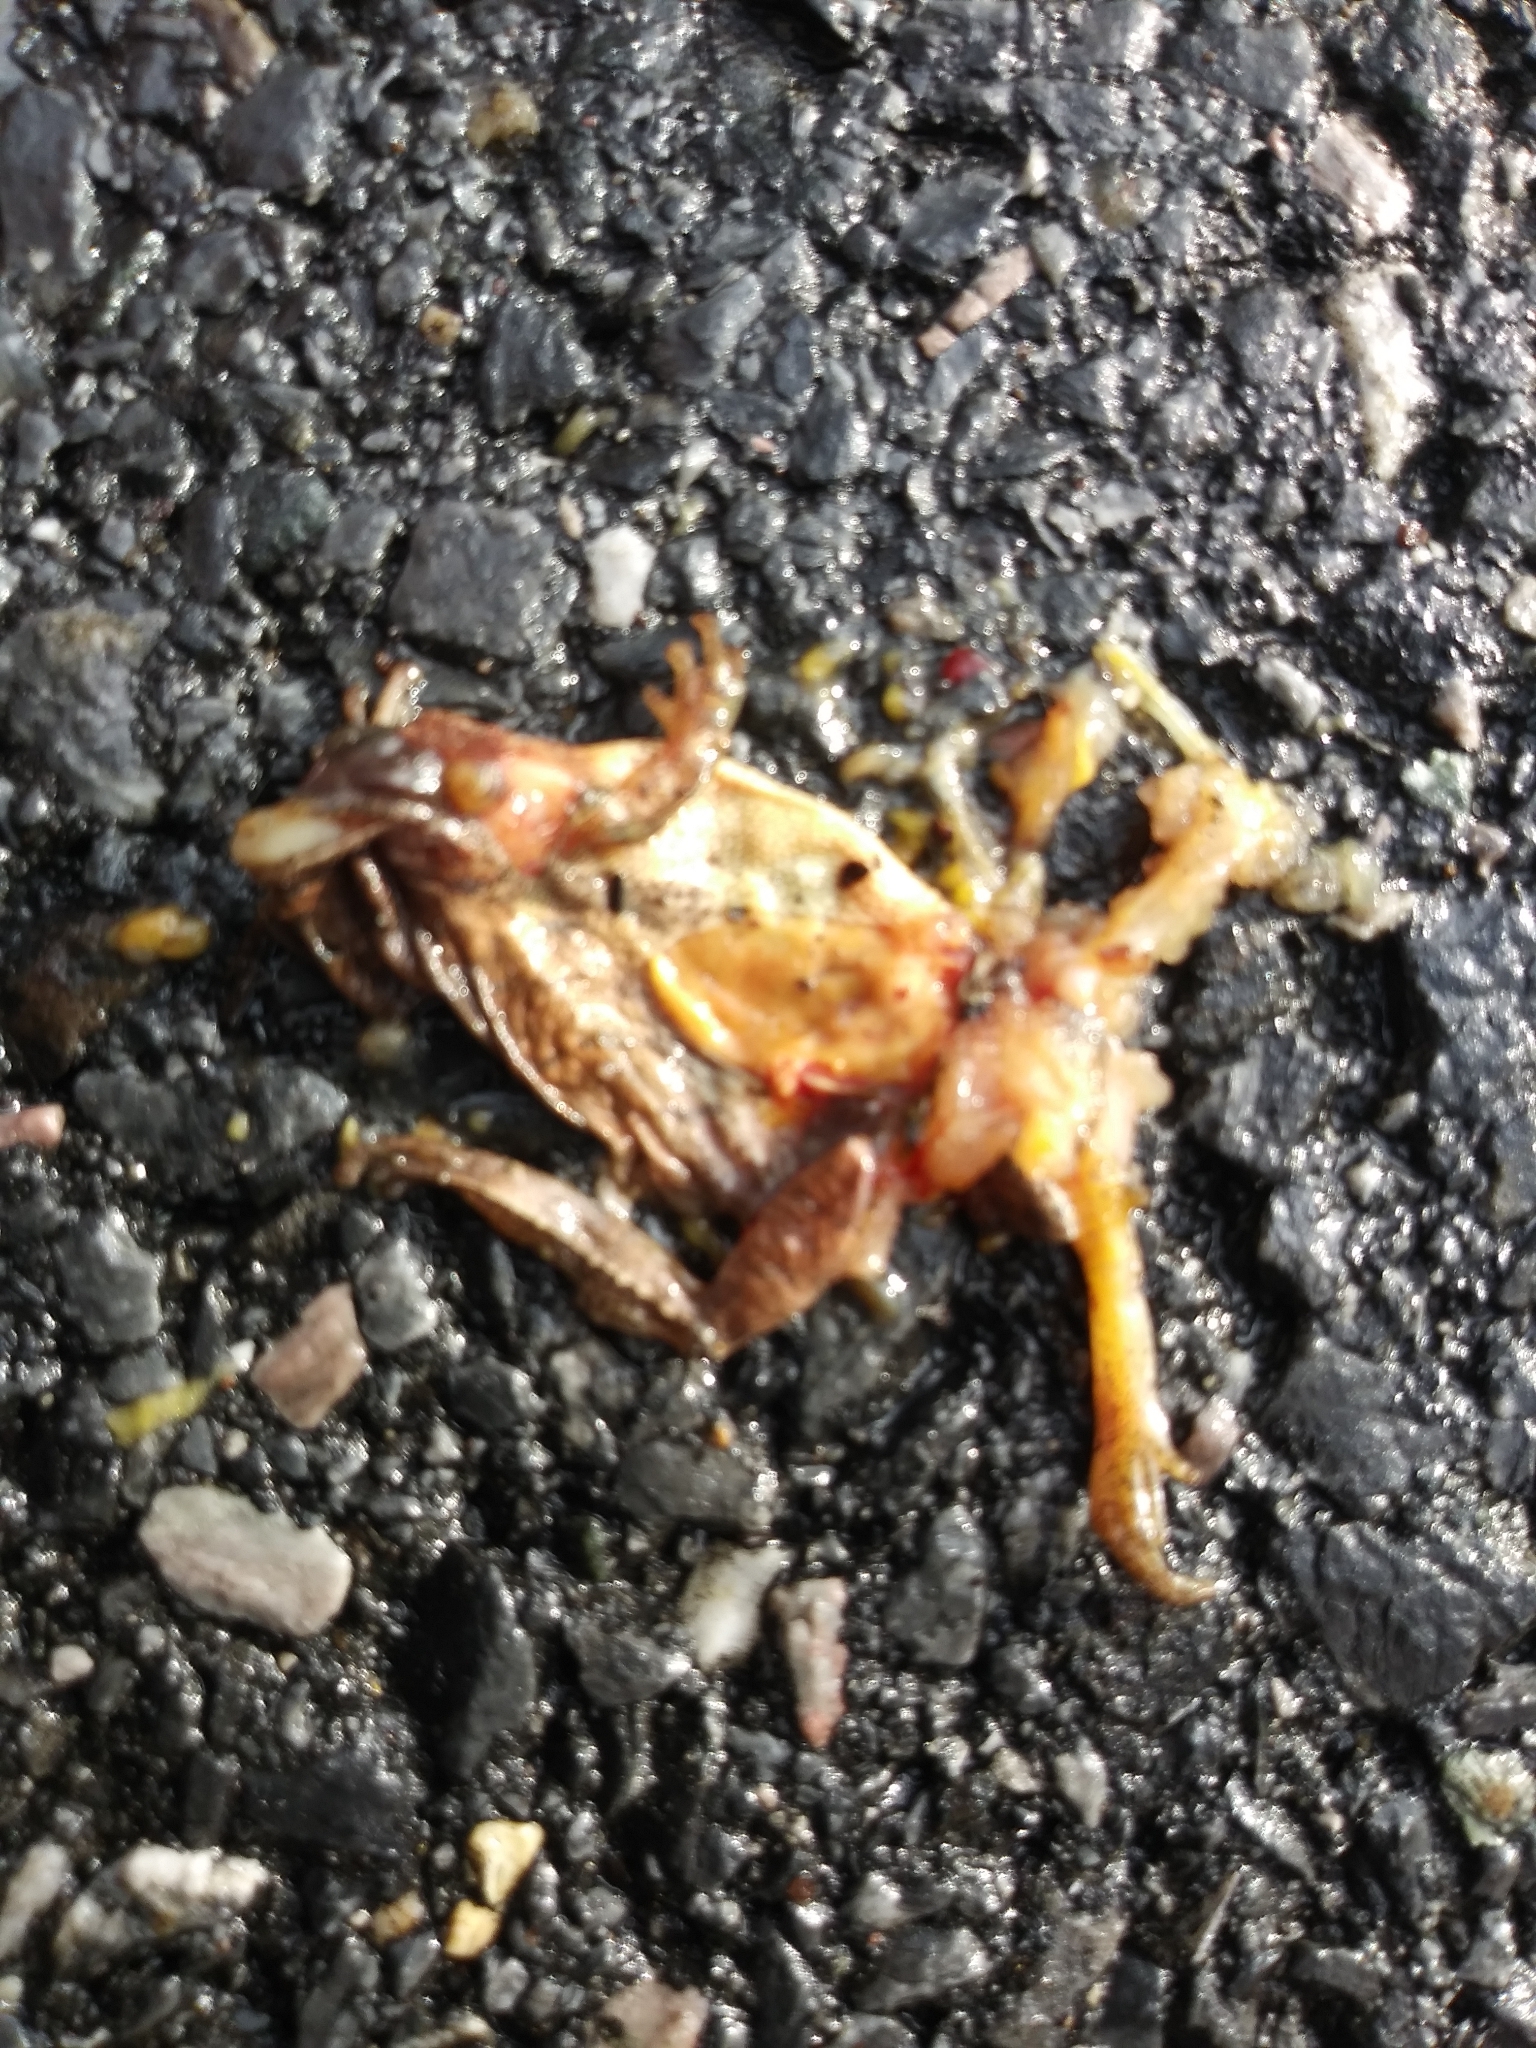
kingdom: Animalia
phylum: Chordata
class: Amphibia
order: Anura
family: Hylidae
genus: Pseudacris
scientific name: Pseudacris crucifer
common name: Spring peeper
